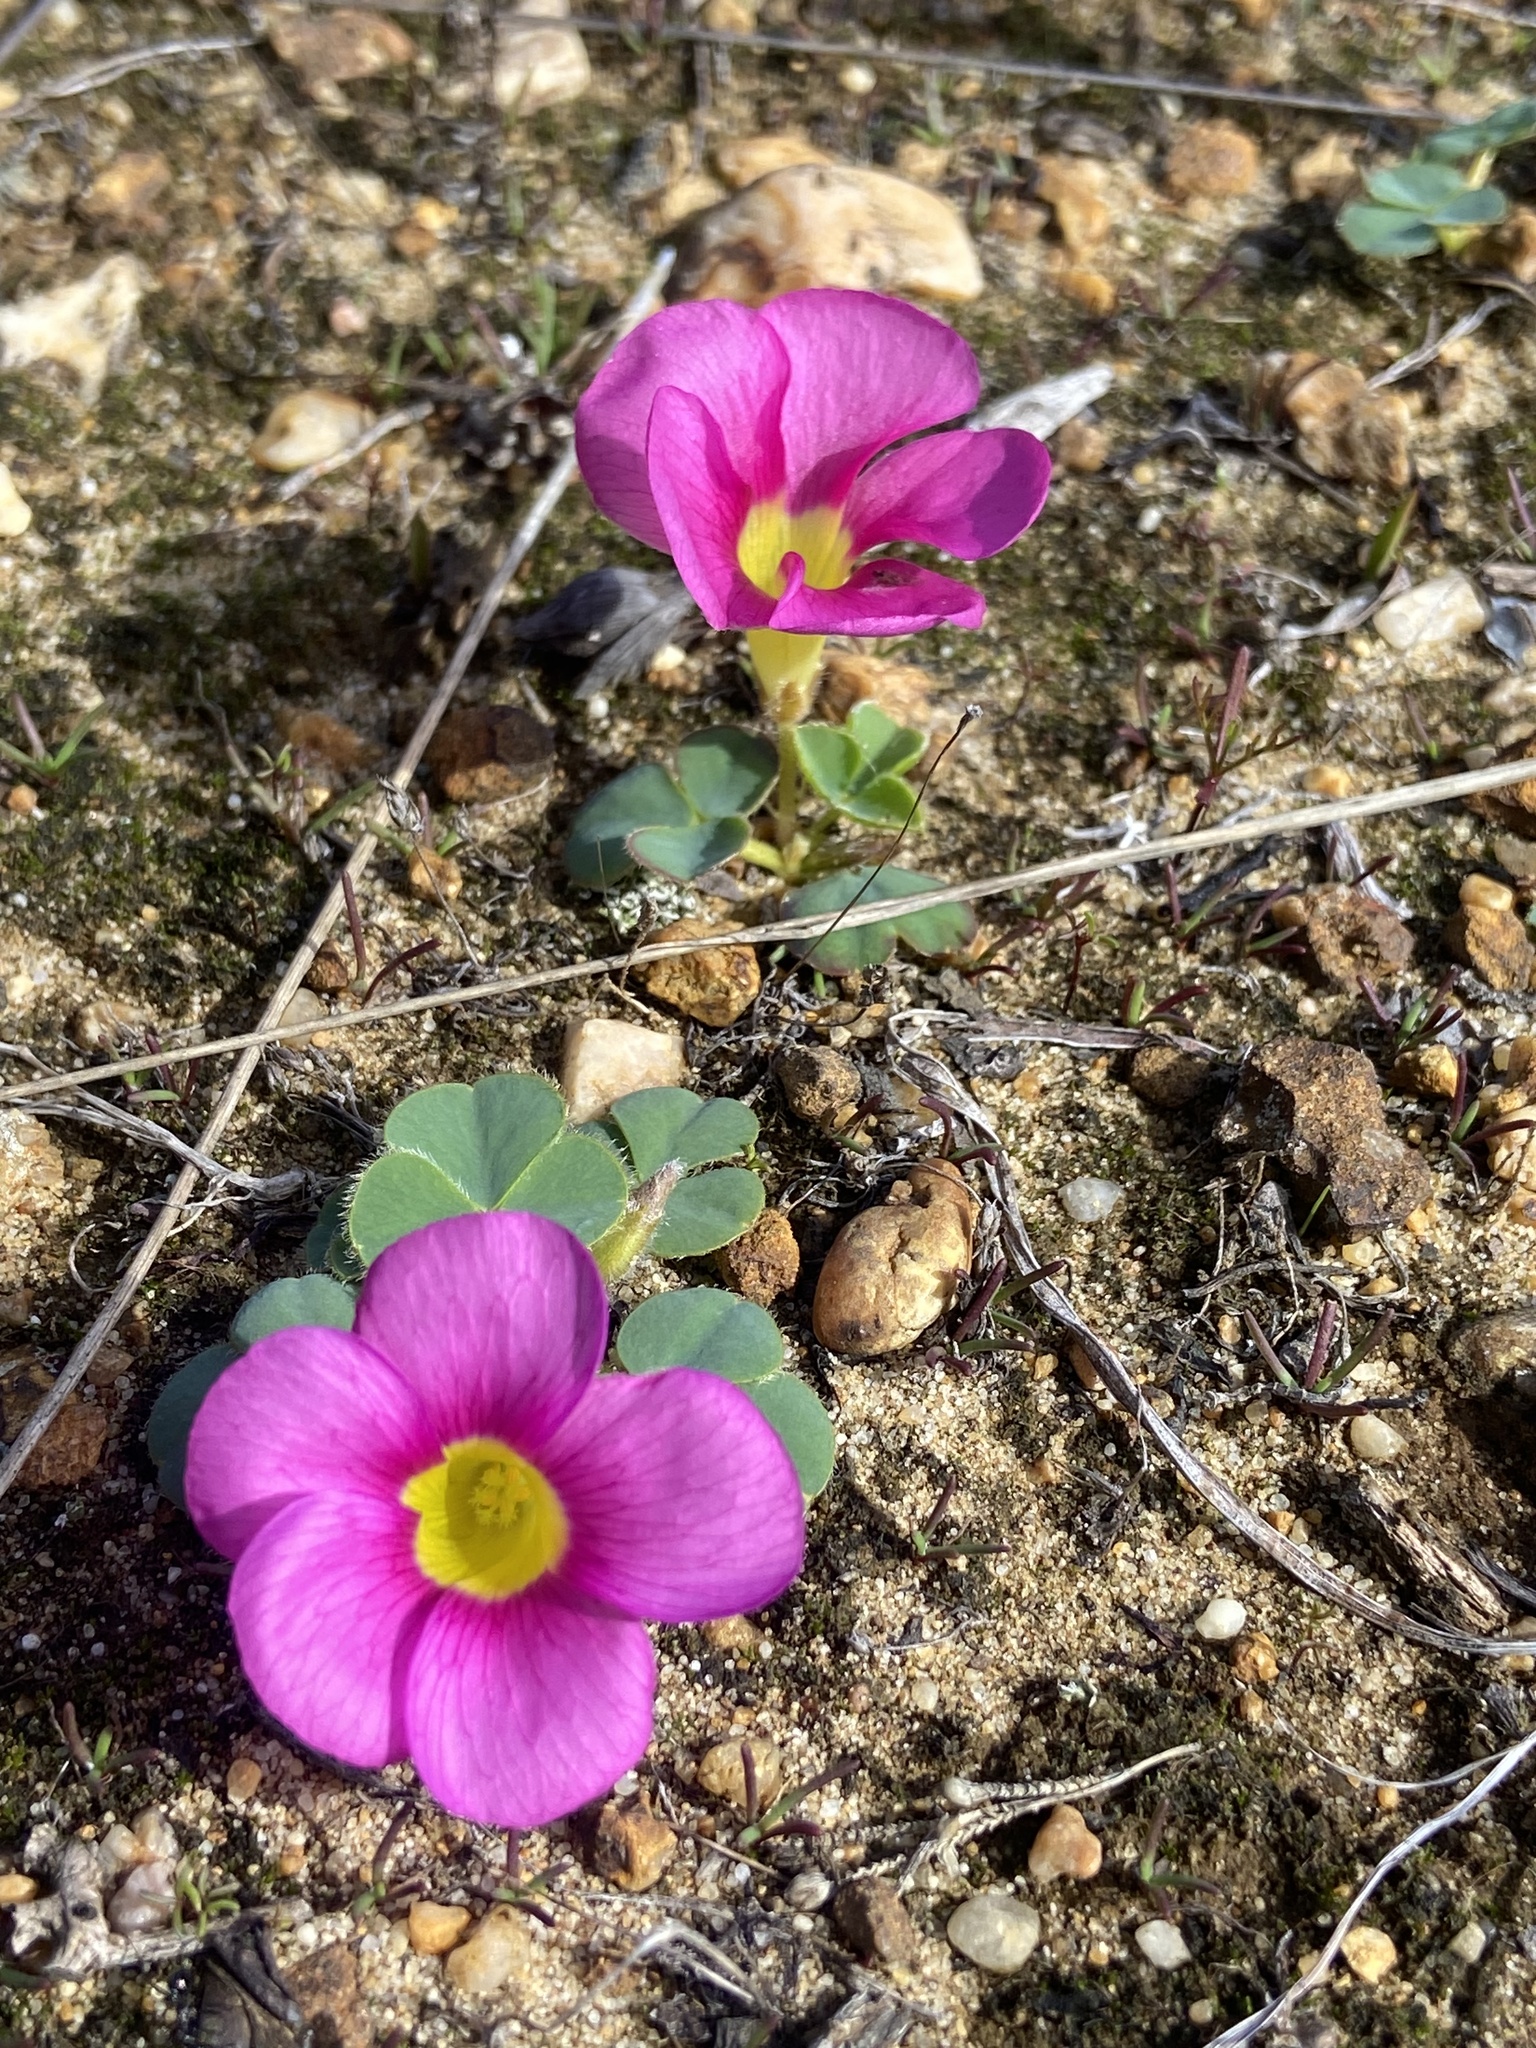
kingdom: Plantae
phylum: Tracheophyta
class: Magnoliopsida
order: Oxalidales
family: Oxalidaceae
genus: Oxalis
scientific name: Oxalis purpurea
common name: Purple woodsorrel
